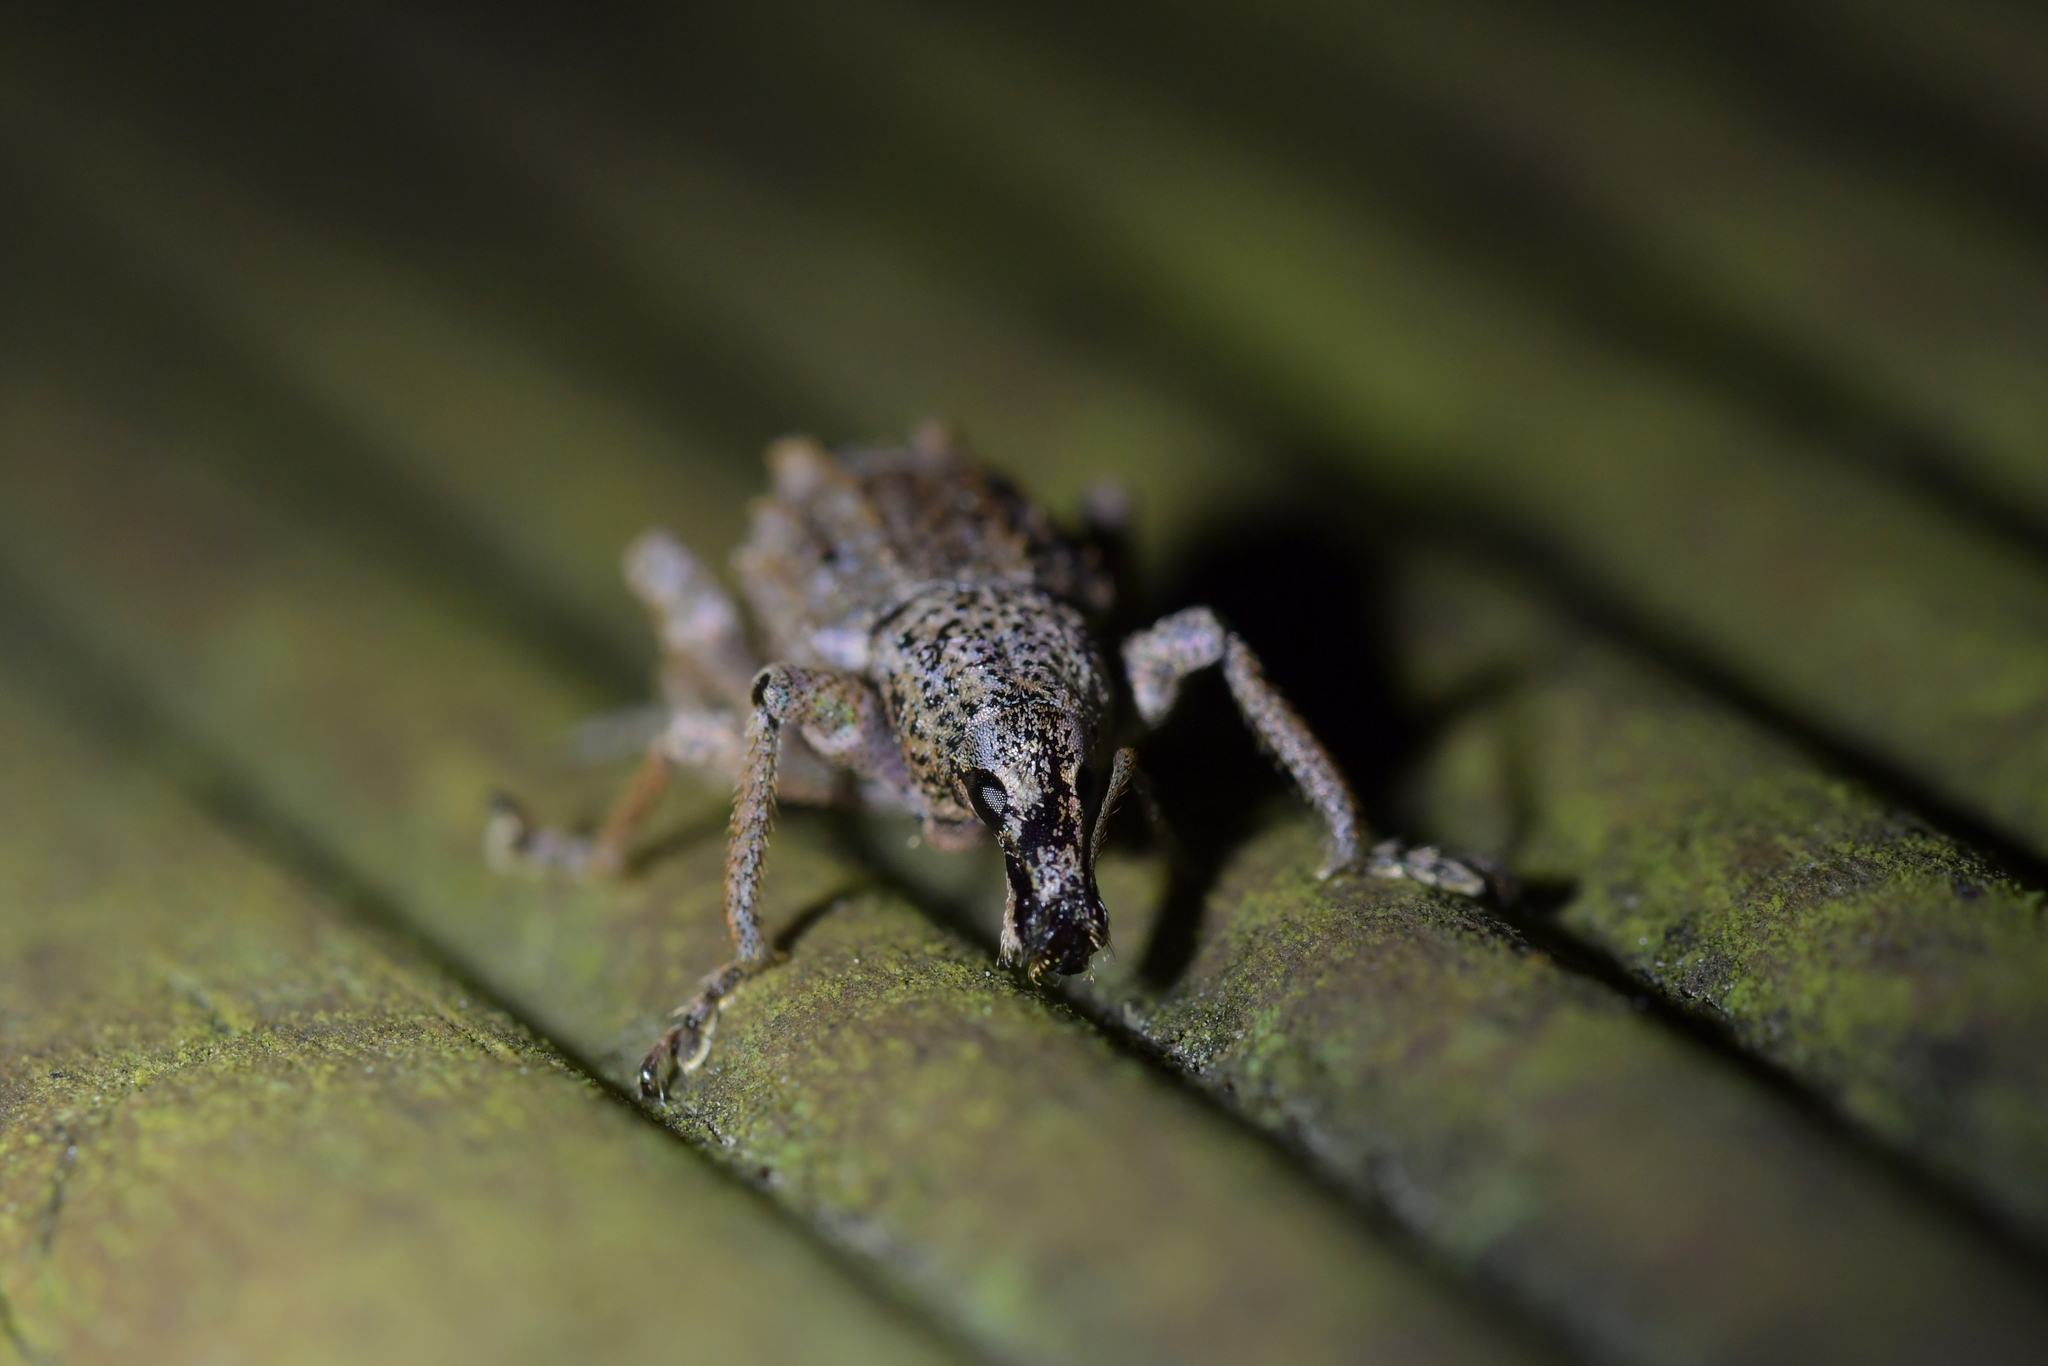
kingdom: Animalia
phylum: Arthropoda
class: Insecta
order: Coleoptera
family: Curculionidae
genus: Catoptes
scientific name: Catoptes binodis
